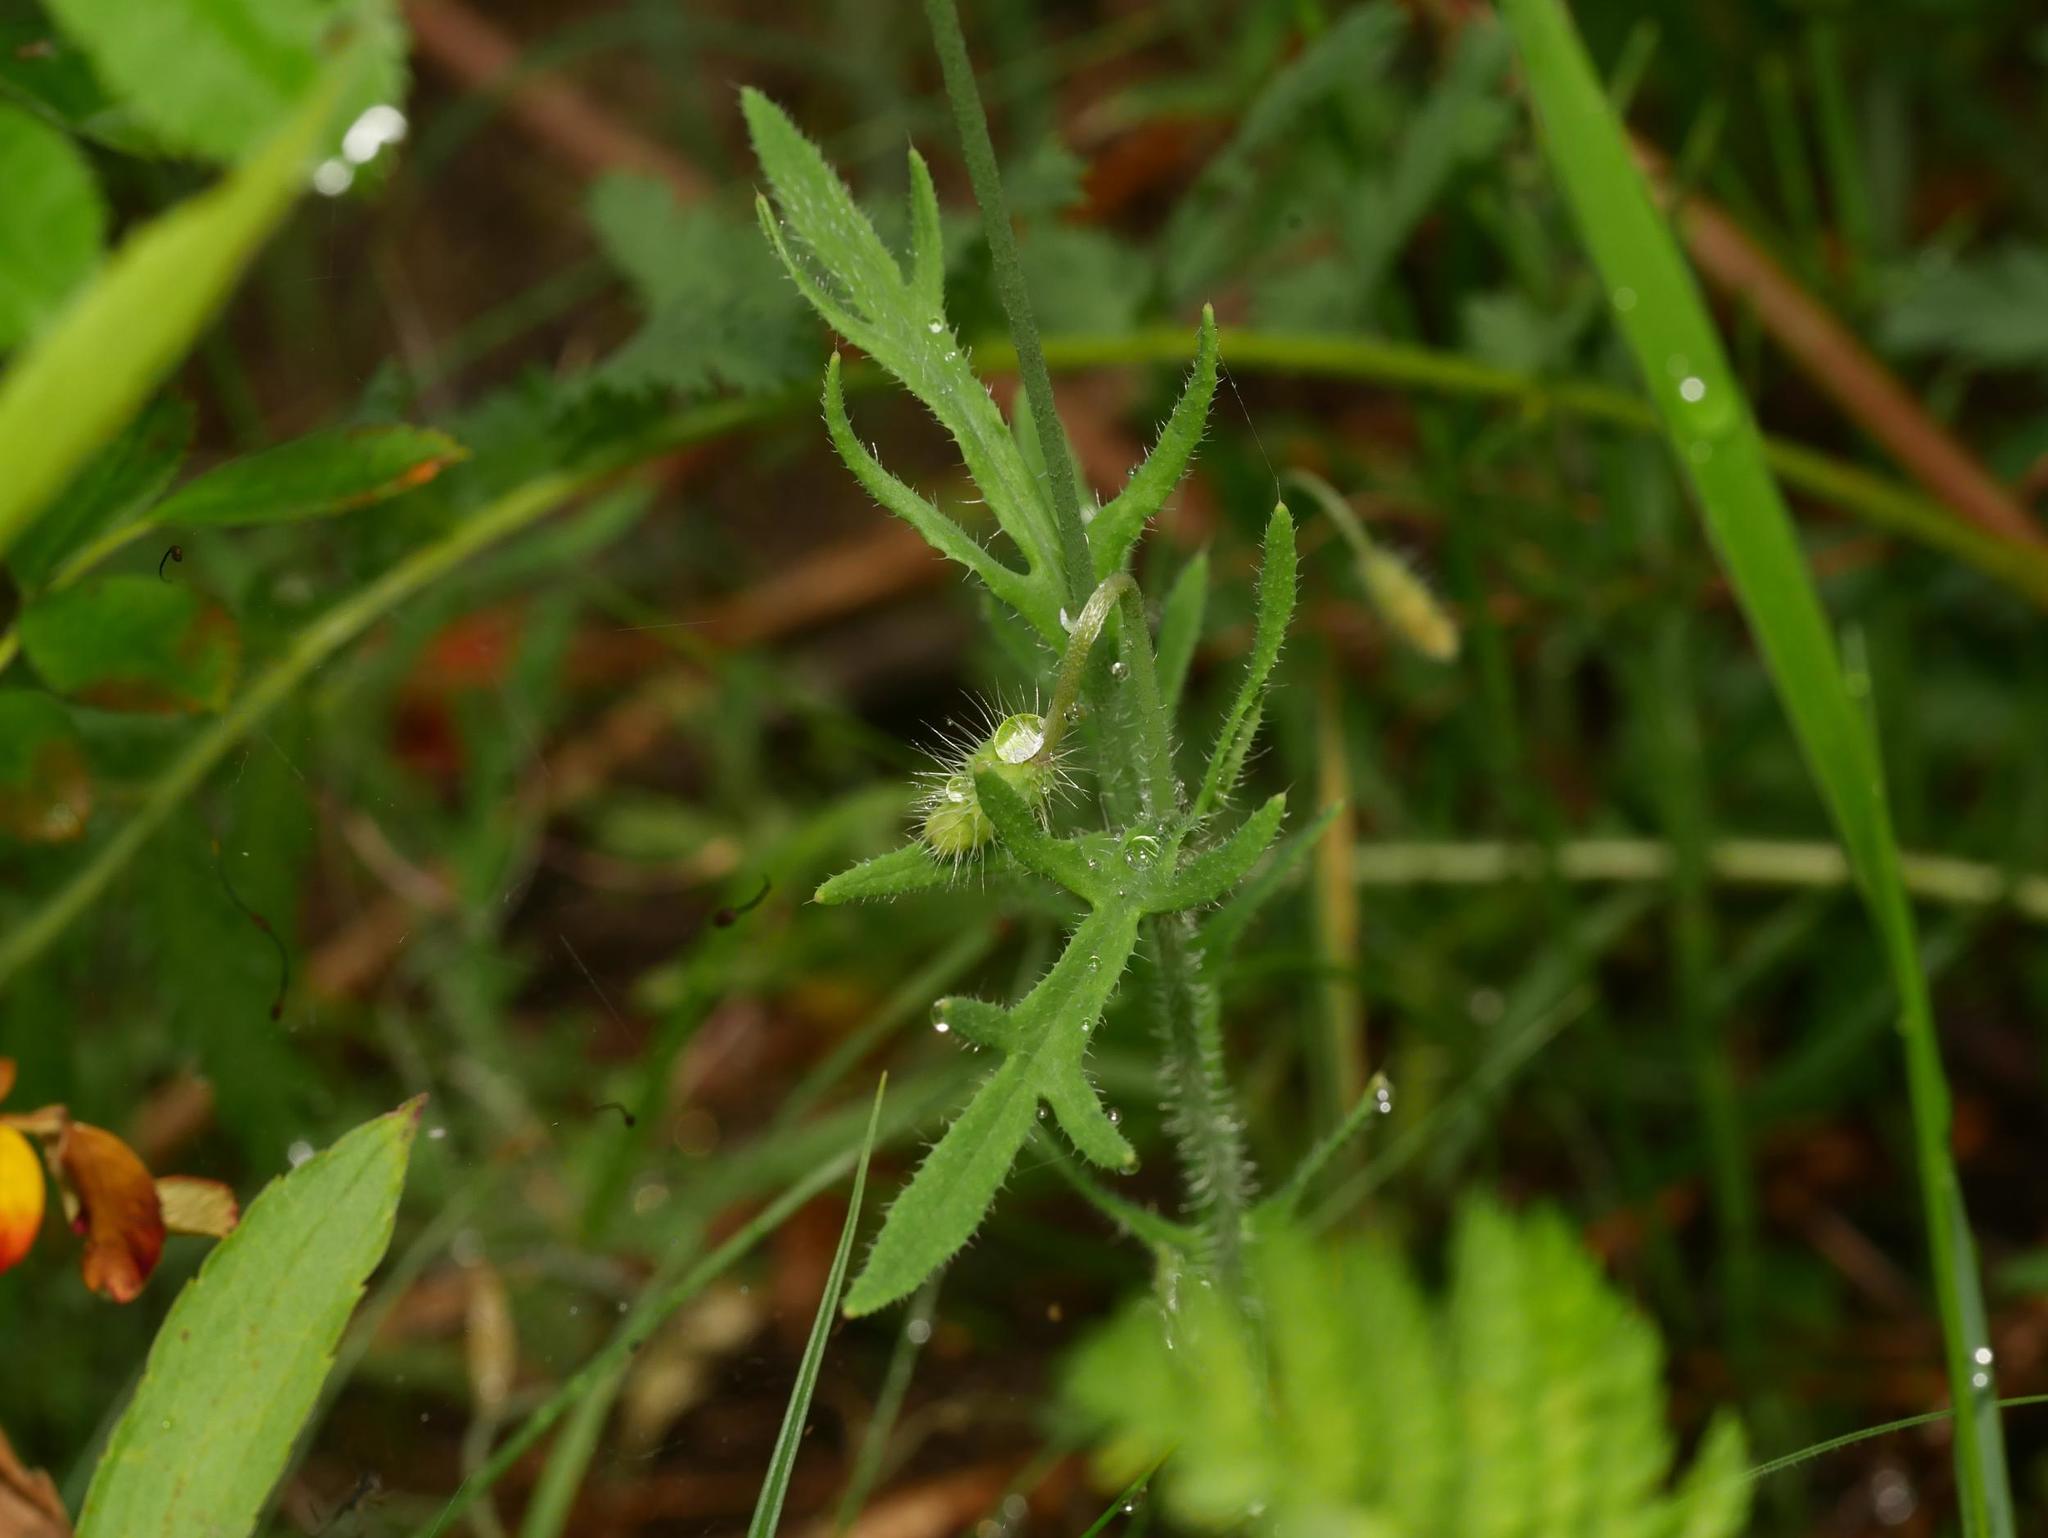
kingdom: Plantae
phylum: Tracheophyta
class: Magnoliopsida
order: Ranunculales
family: Papaveraceae
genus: Papaver
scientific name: Papaver rhoeas
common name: Corn poppy
